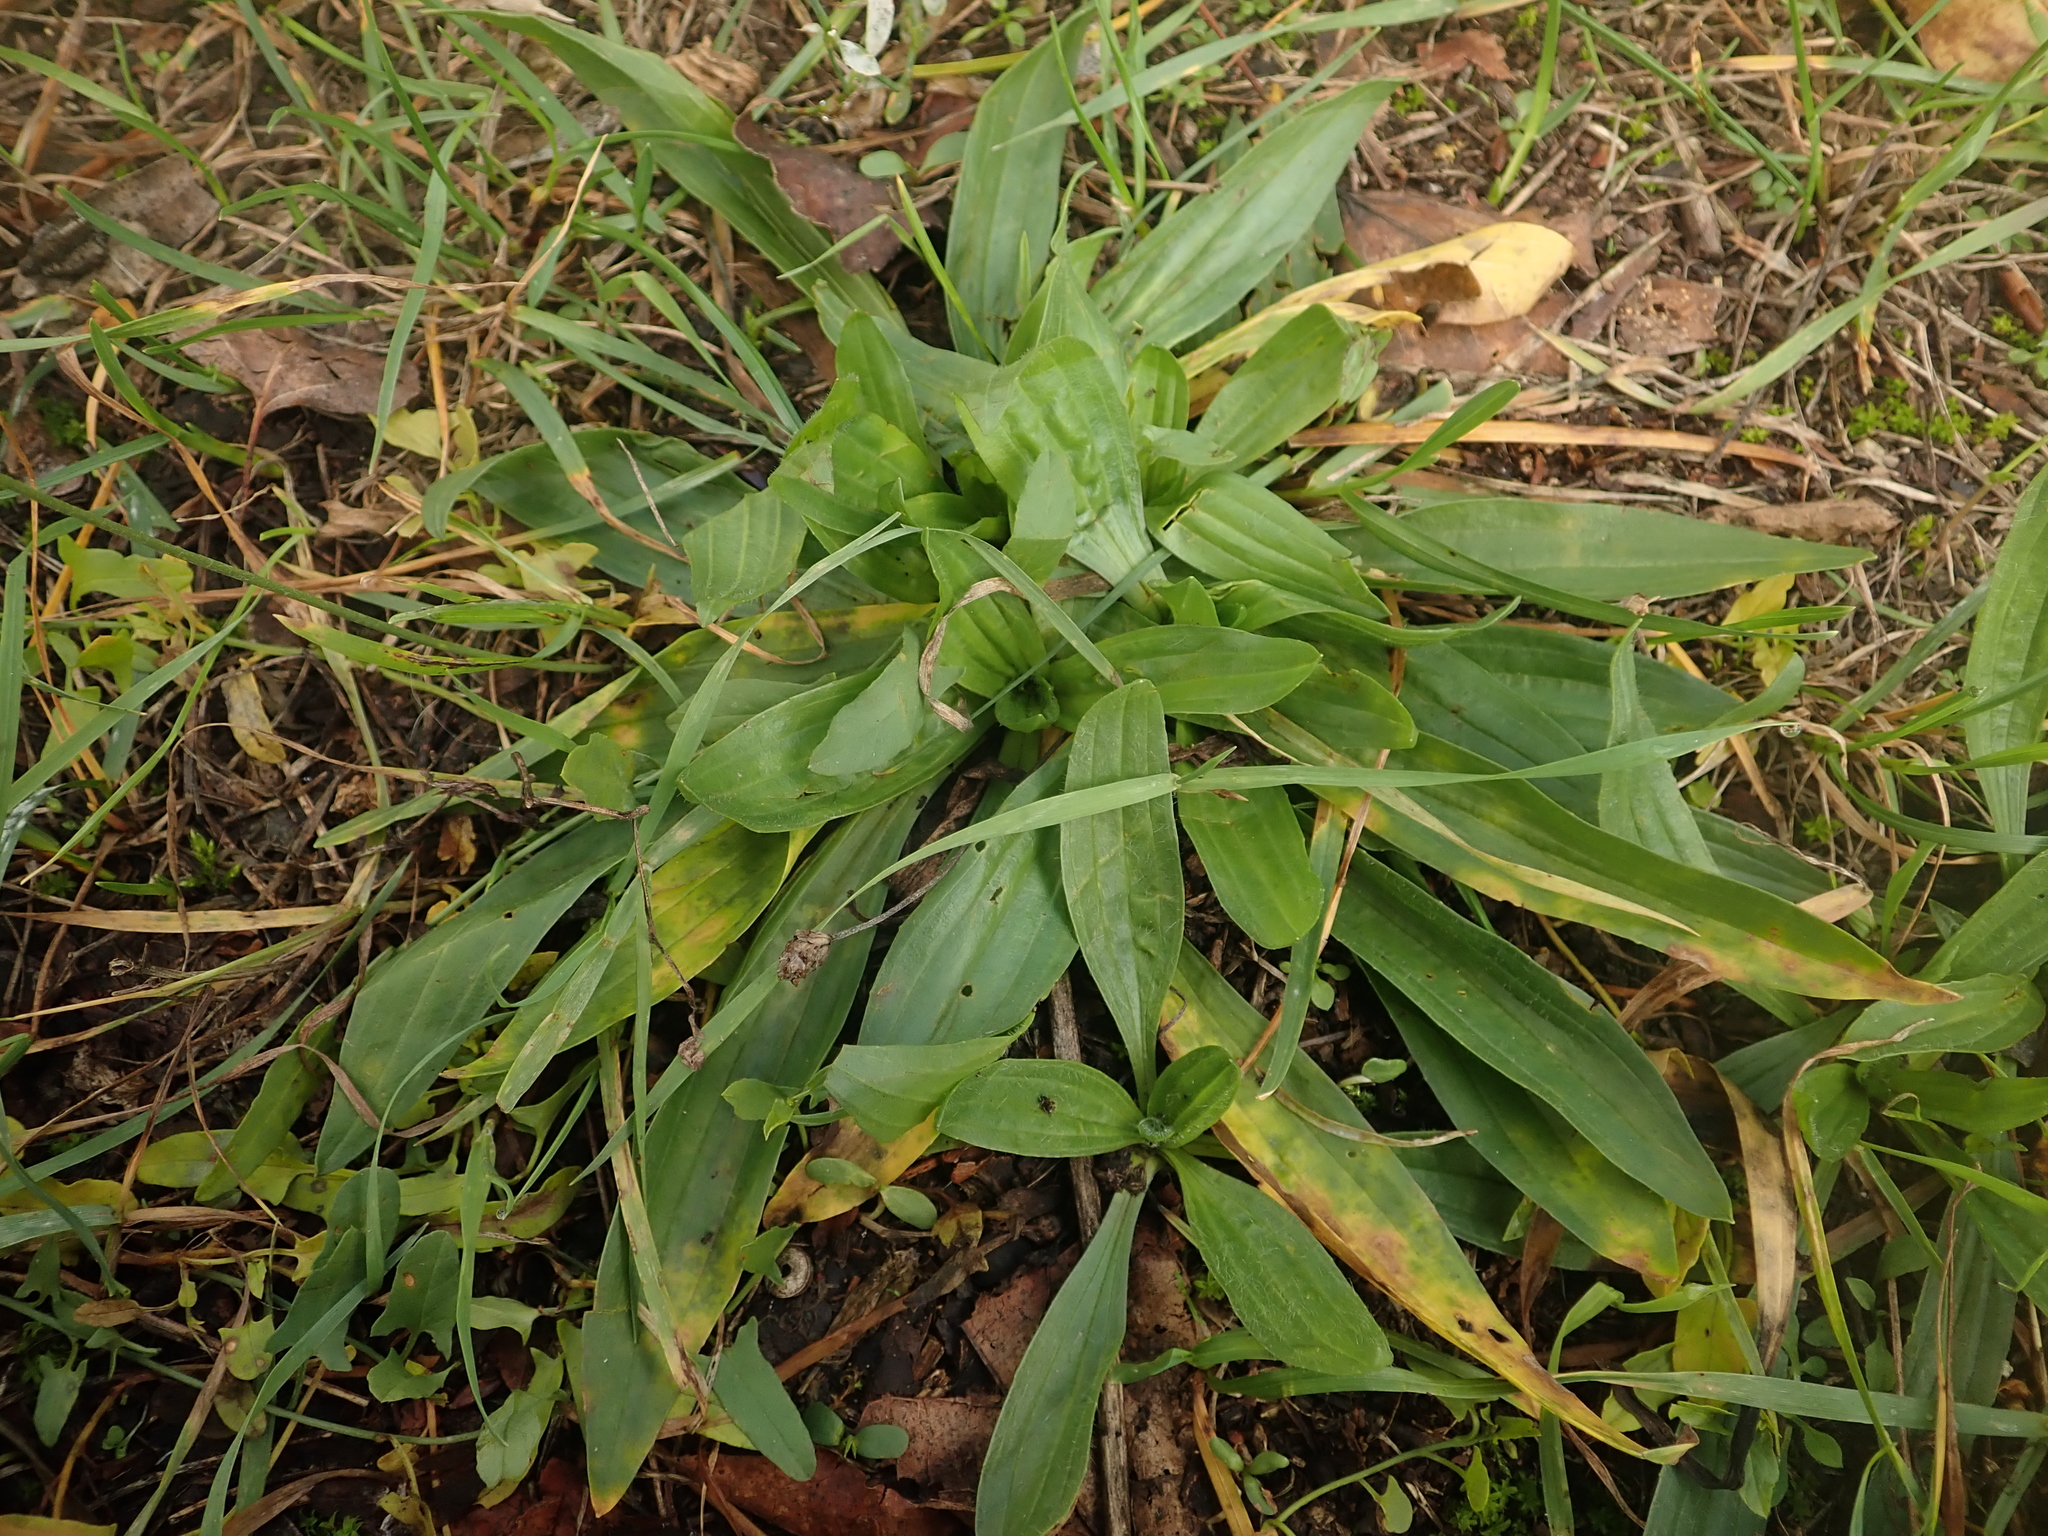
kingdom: Plantae
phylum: Tracheophyta
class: Magnoliopsida
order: Lamiales
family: Plantaginaceae
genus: Plantago
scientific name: Plantago lanceolata
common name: Ribwort plantain
